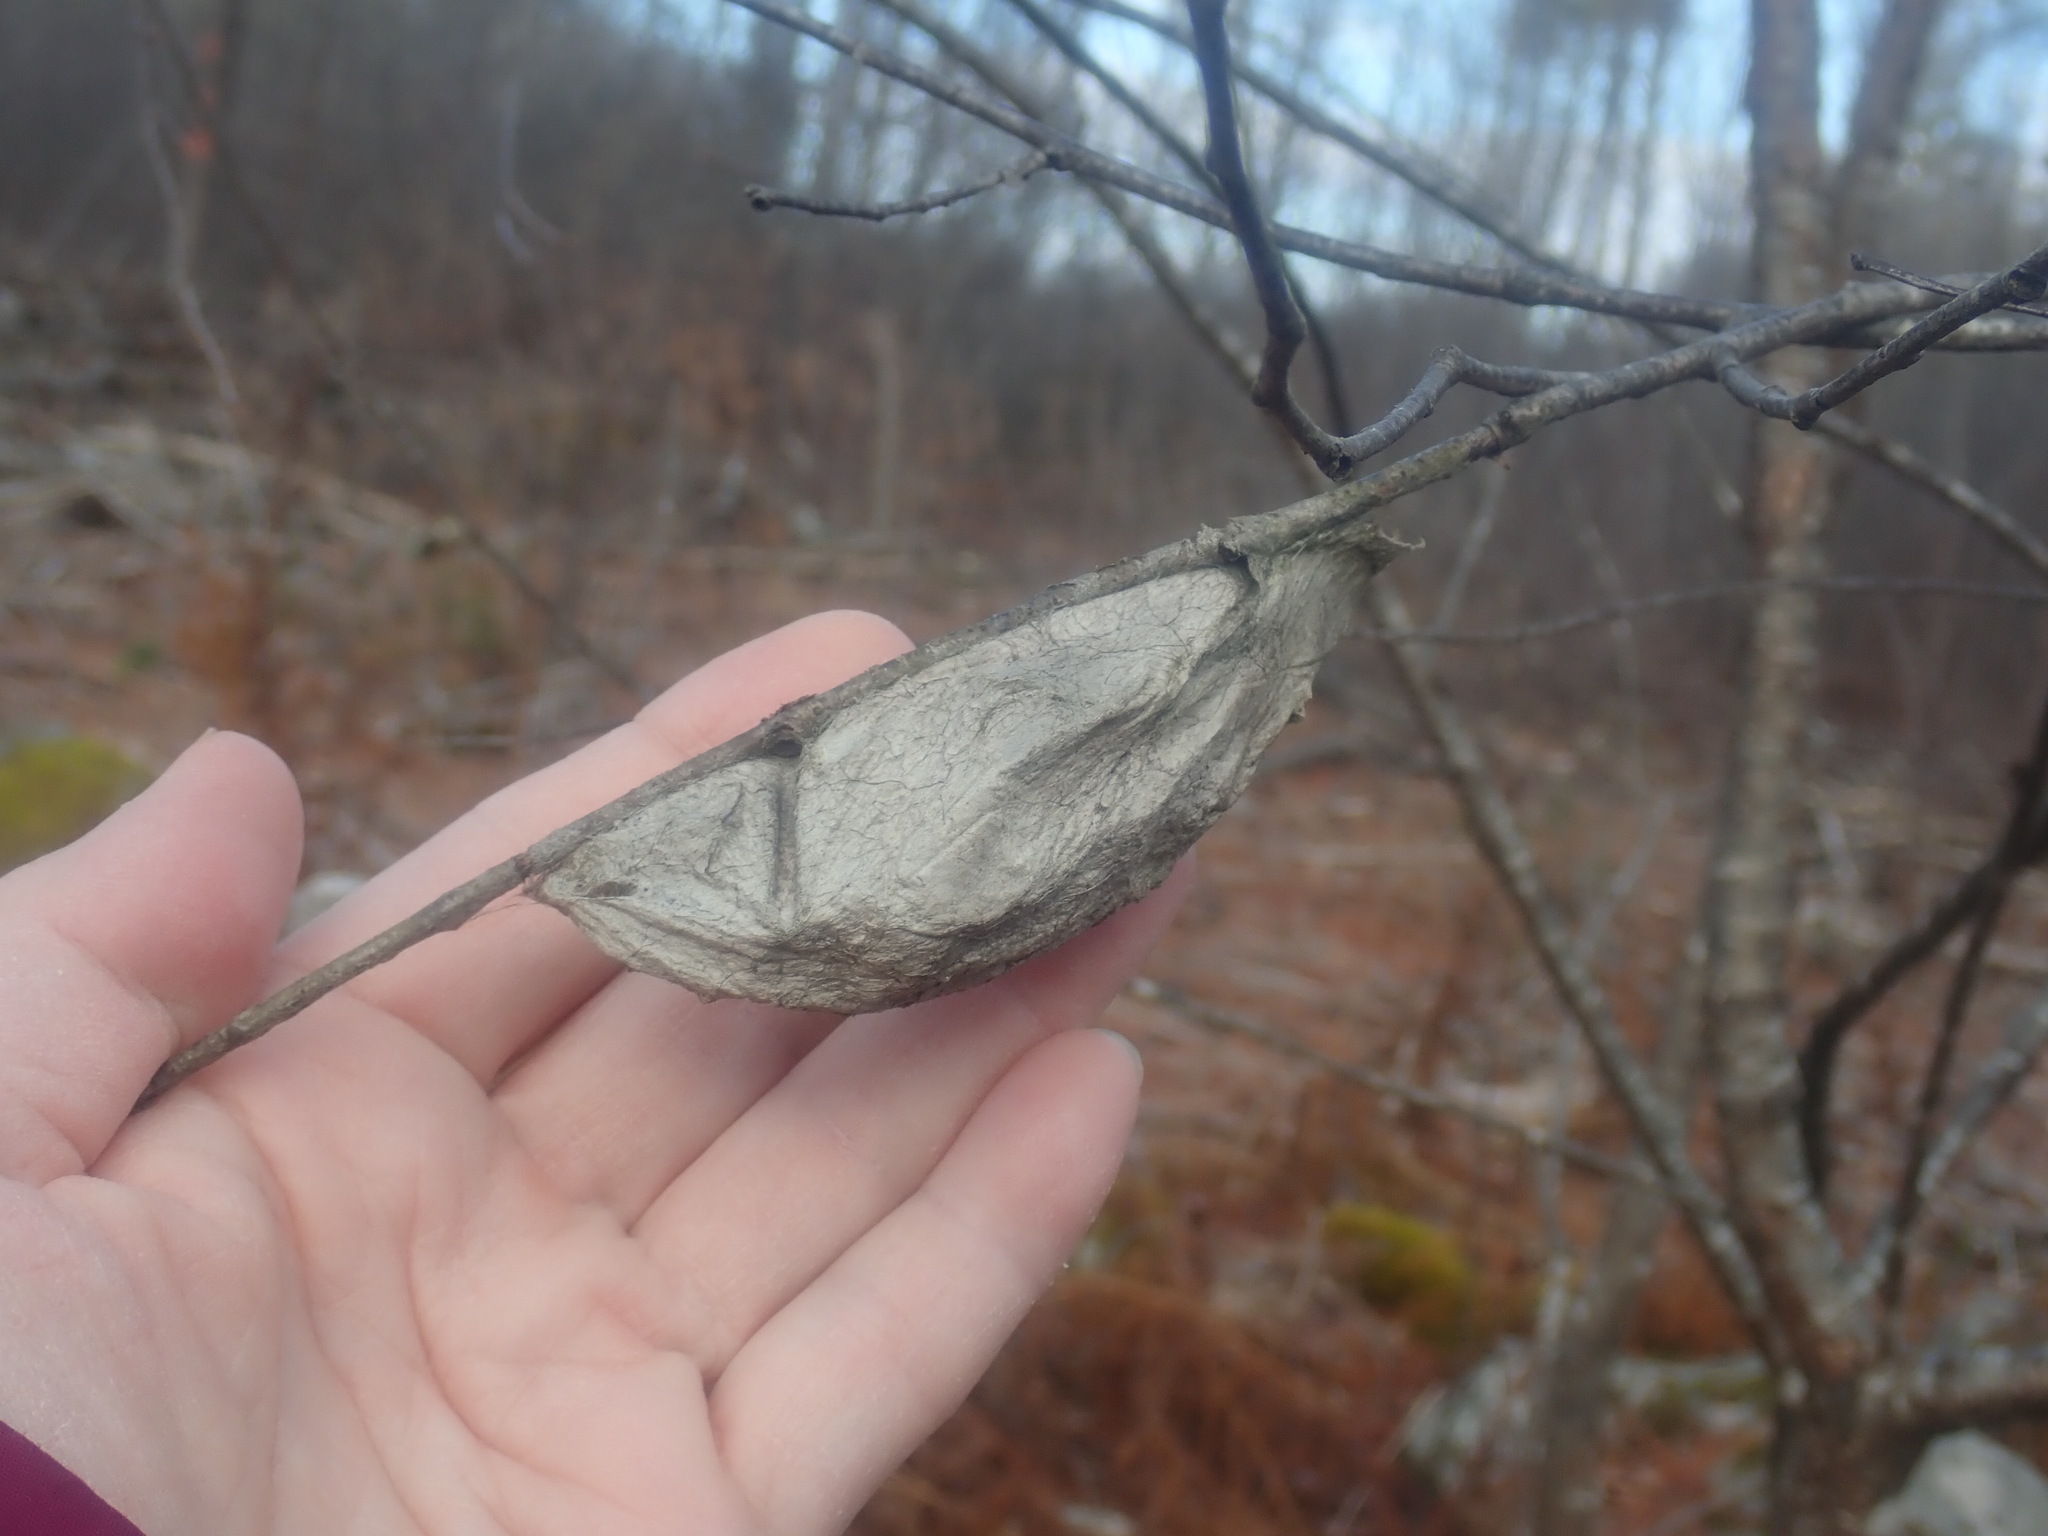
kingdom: Animalia
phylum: Arthropoda
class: Insecta
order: Lepidoptera
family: Saturniidae
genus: Hyalophora
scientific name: Hyalophora cecropia
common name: Cecropia silkmoth
